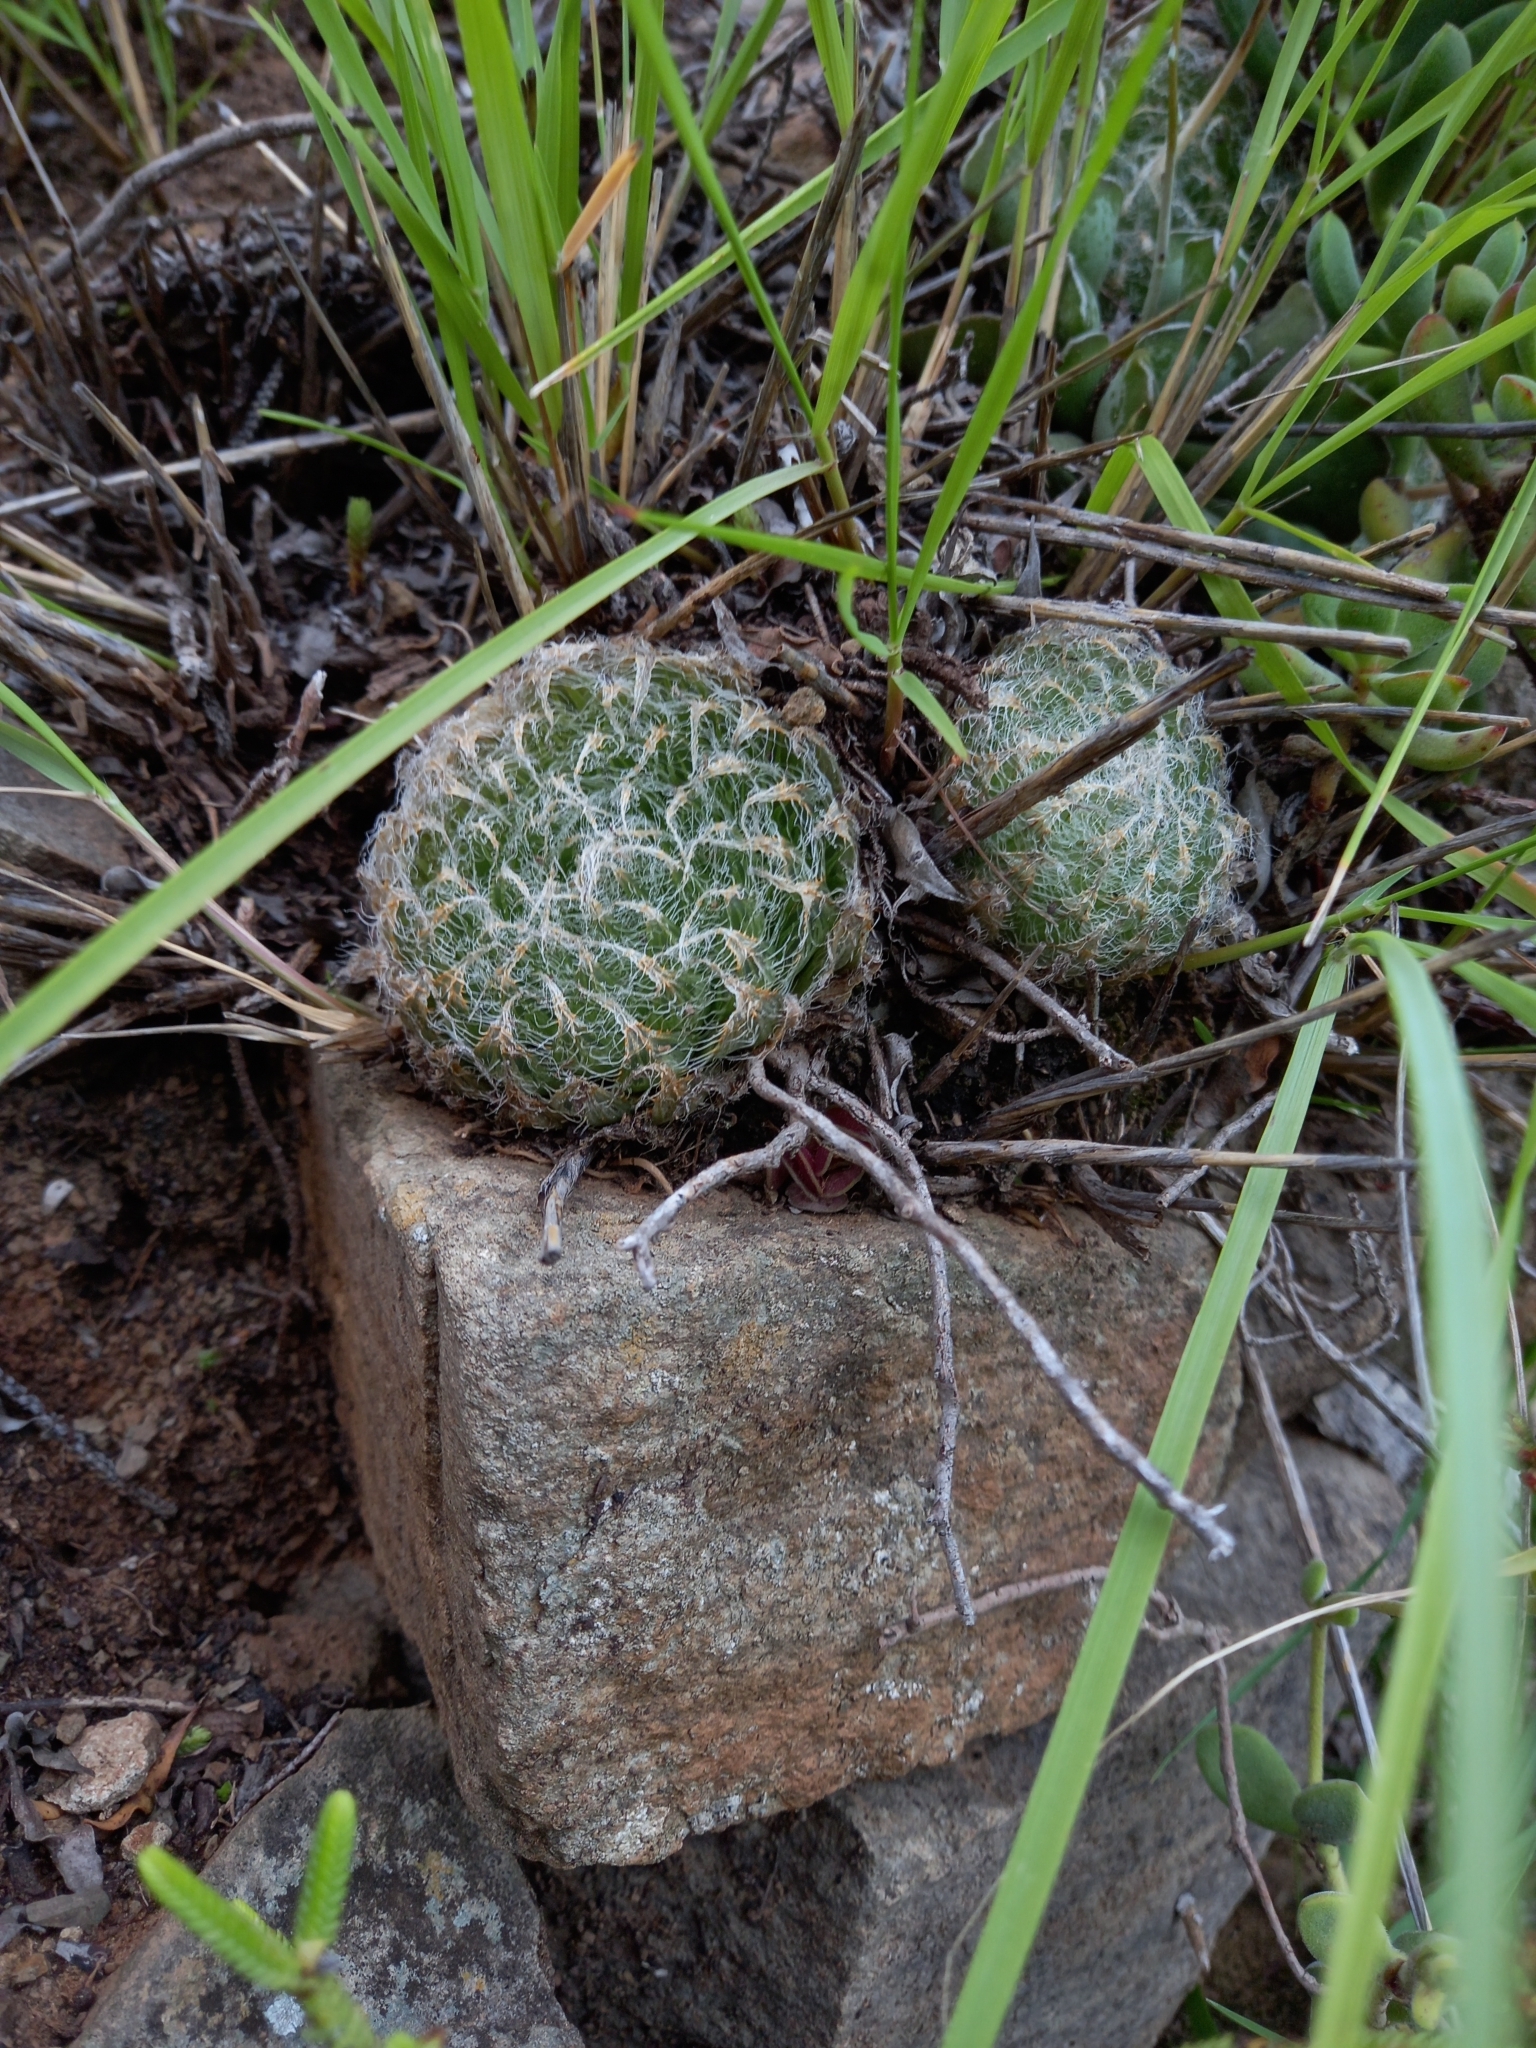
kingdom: Plantae
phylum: Tracheophyta
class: Liliopsida
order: Asparagales
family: Asphodelaceae
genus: Haworthia
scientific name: Haworthia bolusii
